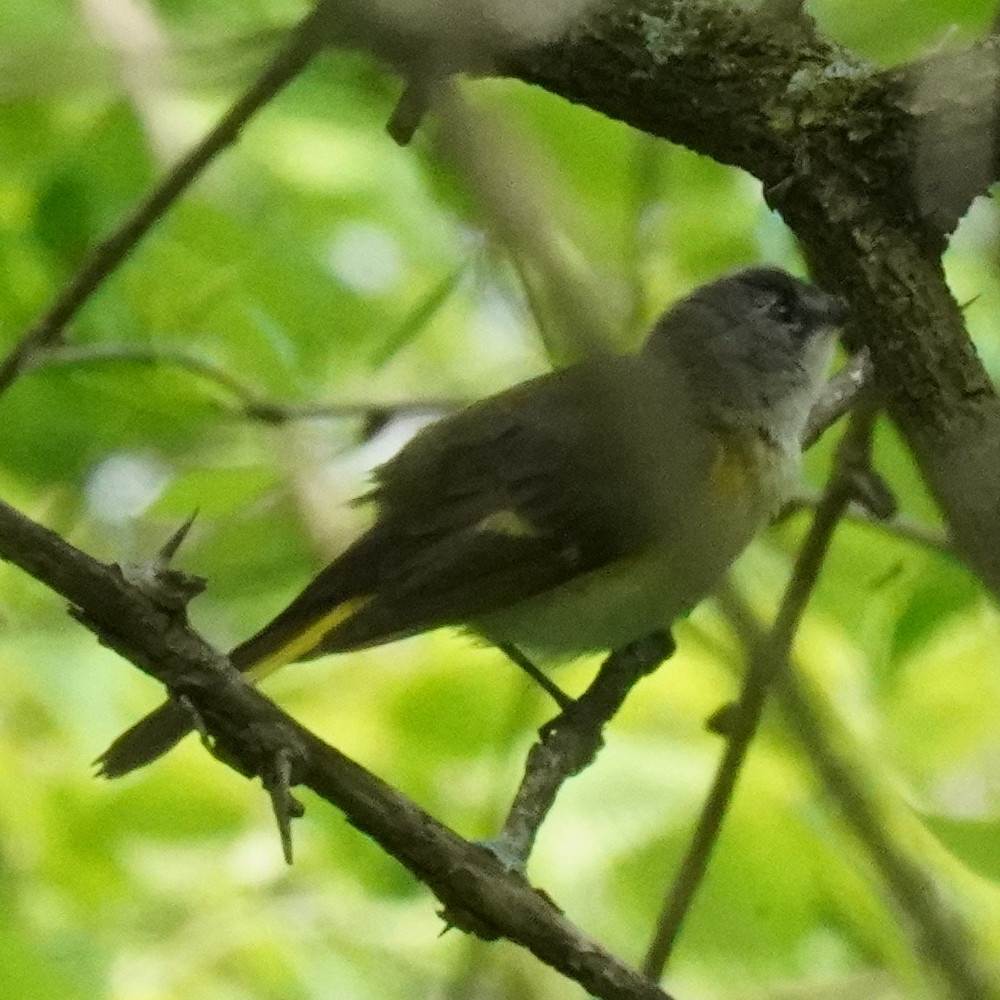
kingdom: Animalia
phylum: Chordata
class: Aves
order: Passeriformes
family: Parulidae
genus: Setophaga
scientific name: Setophaga ruticilla
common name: American redstart
